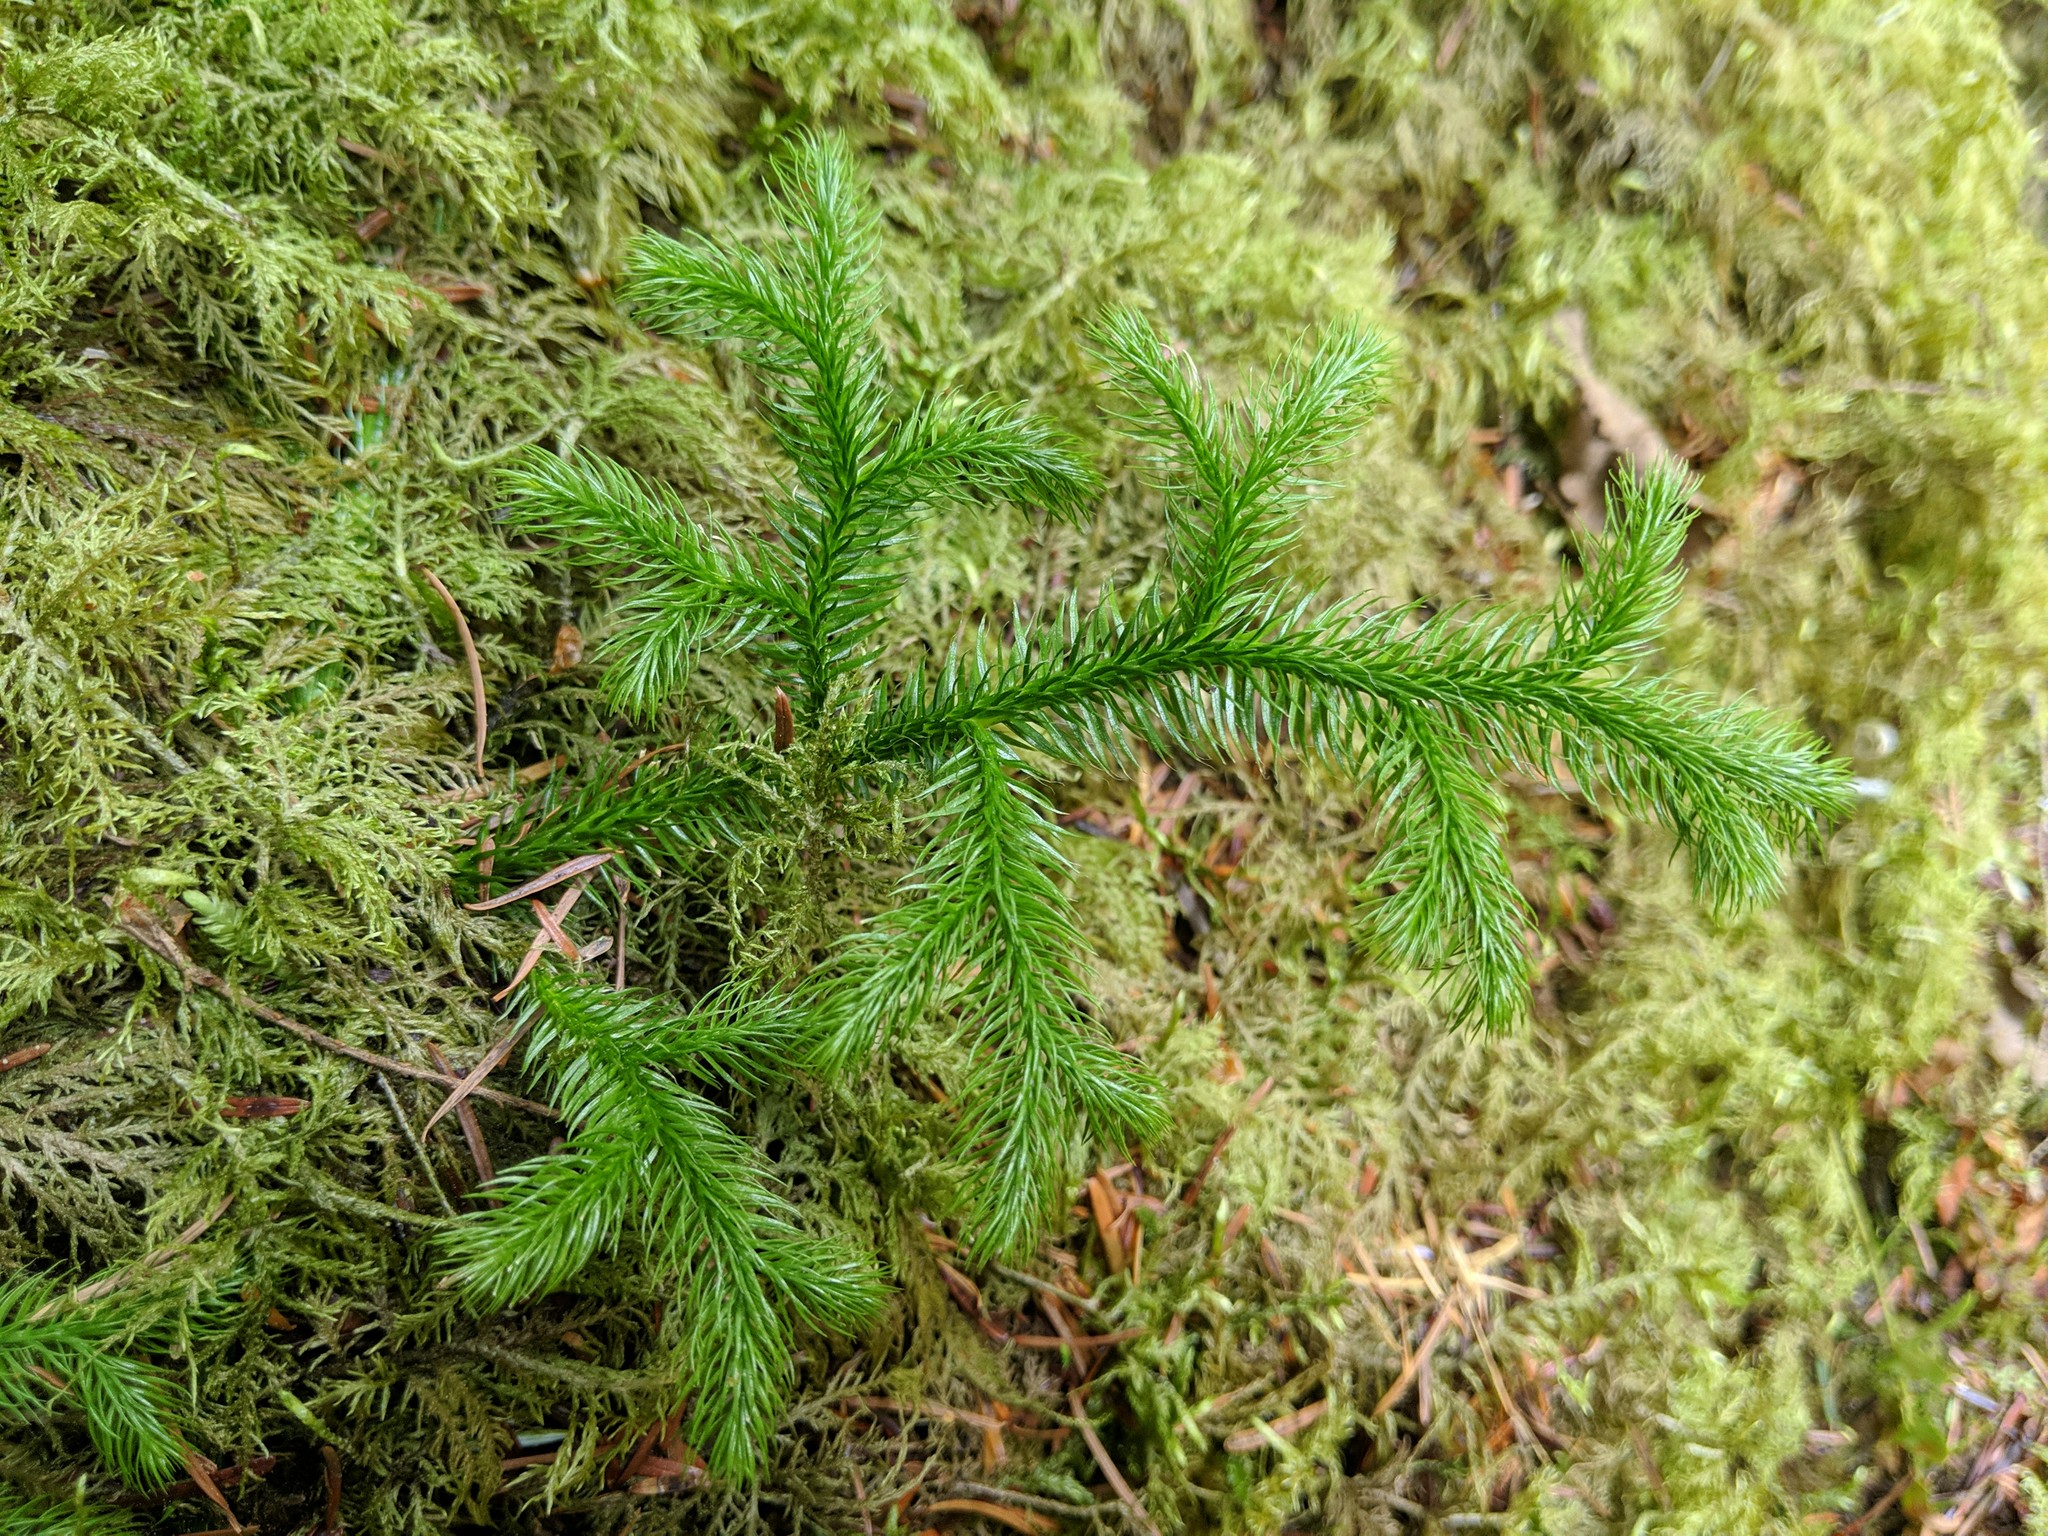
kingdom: Plantae
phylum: Tracheophyta
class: Lycopodiopsida
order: Lycopodiales
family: Lycopodiaceae
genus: Lycopodium
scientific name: Lycopodium clavatum
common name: Stag's-horn clubmoss
